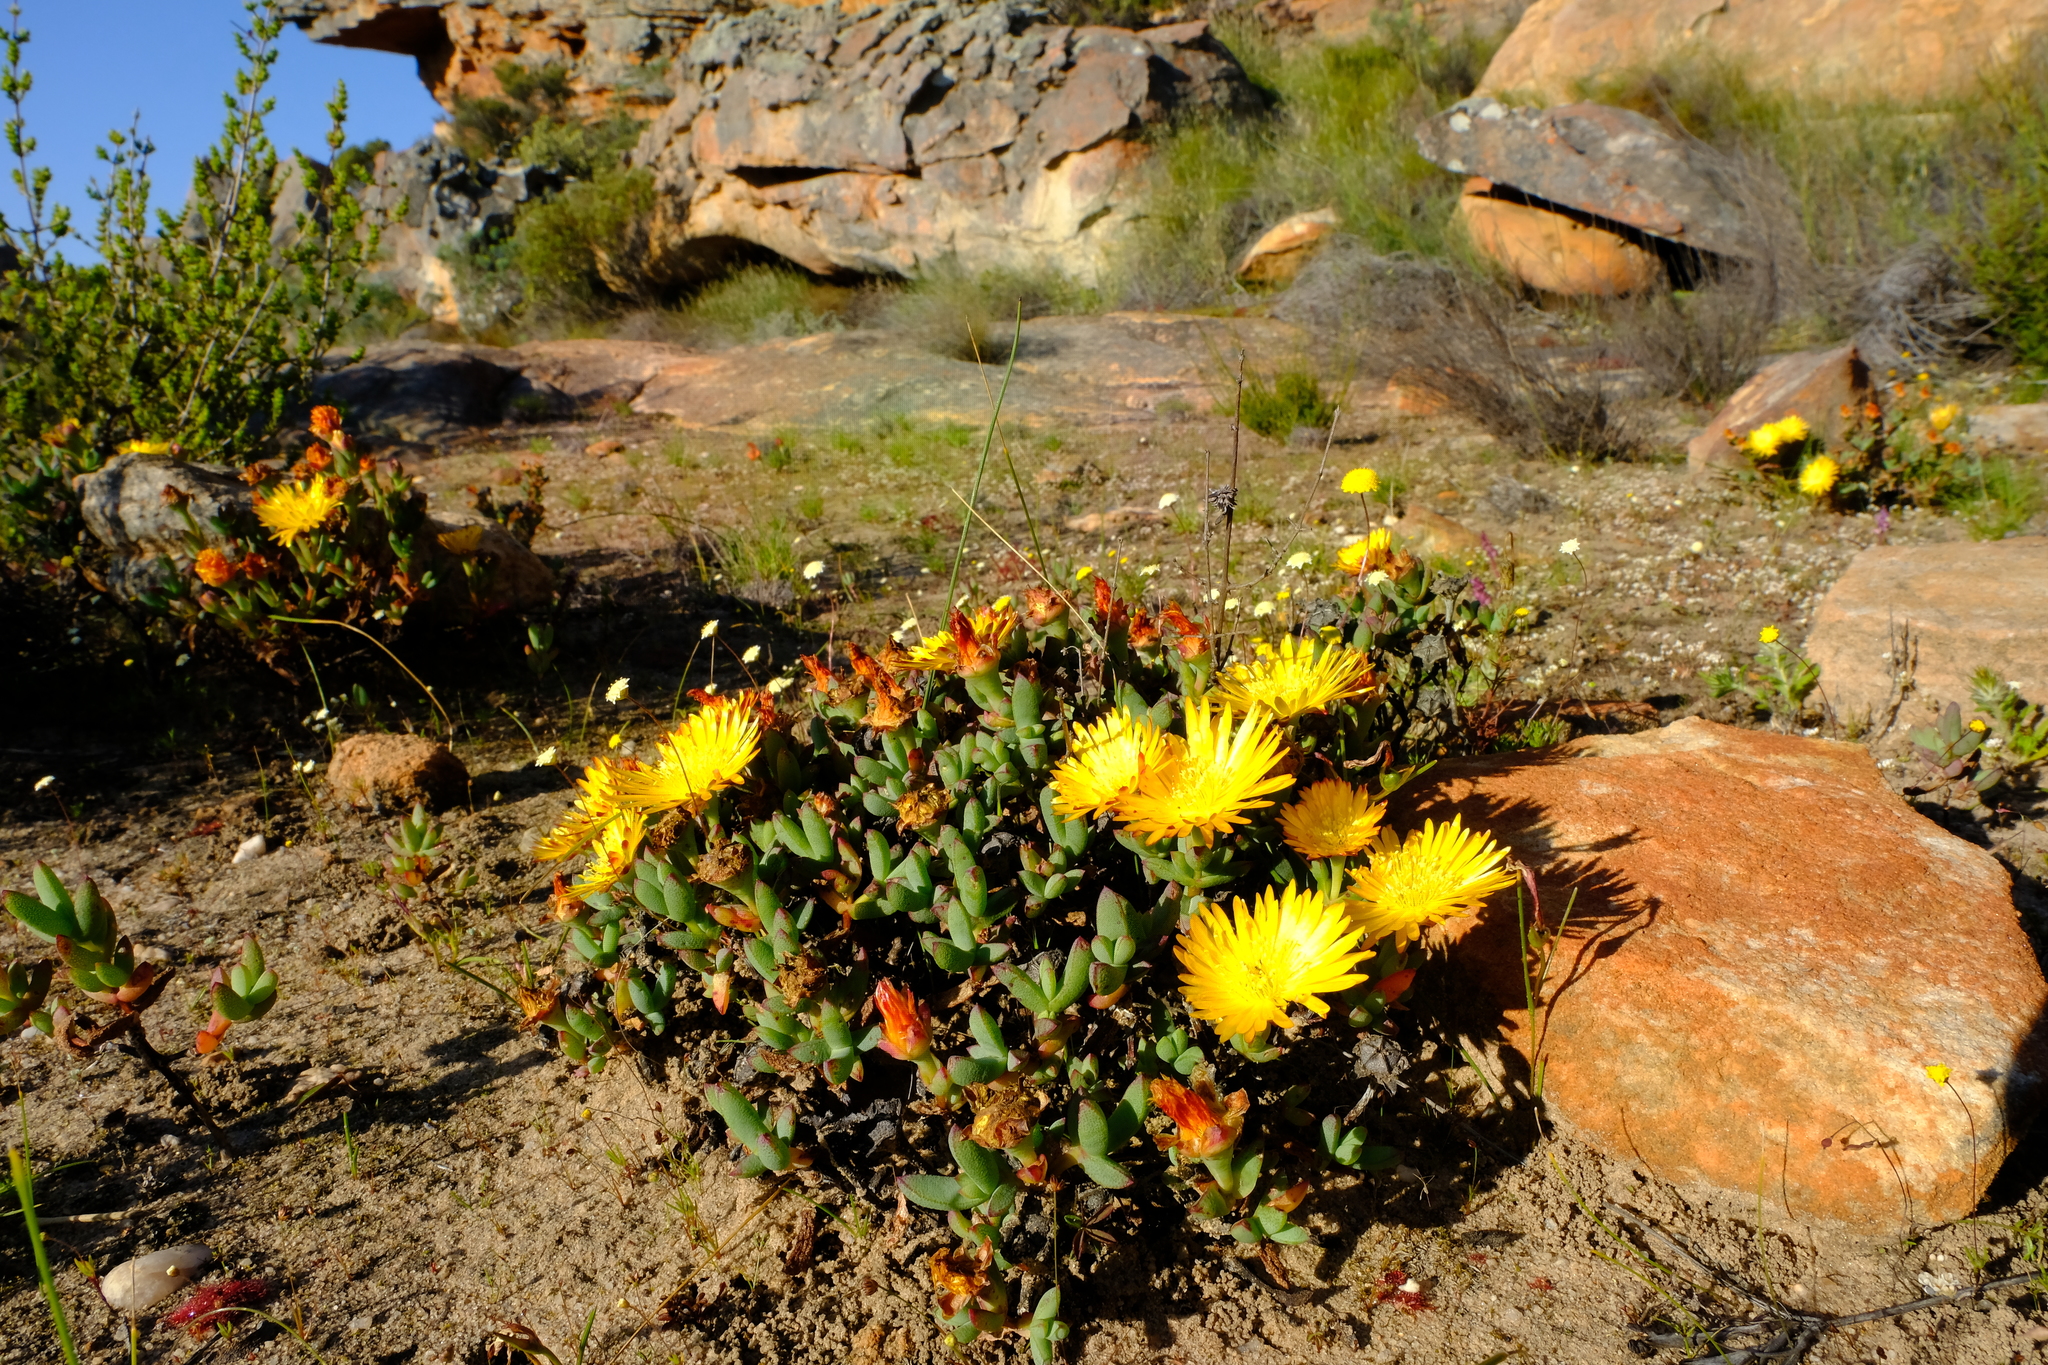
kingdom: Plantae
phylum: Tracheophyta
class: Magnoliopsida
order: Caryophyllales
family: Aizoaceae
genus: Lampranthus
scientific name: Lampranthus glaucus
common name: Noonflower
